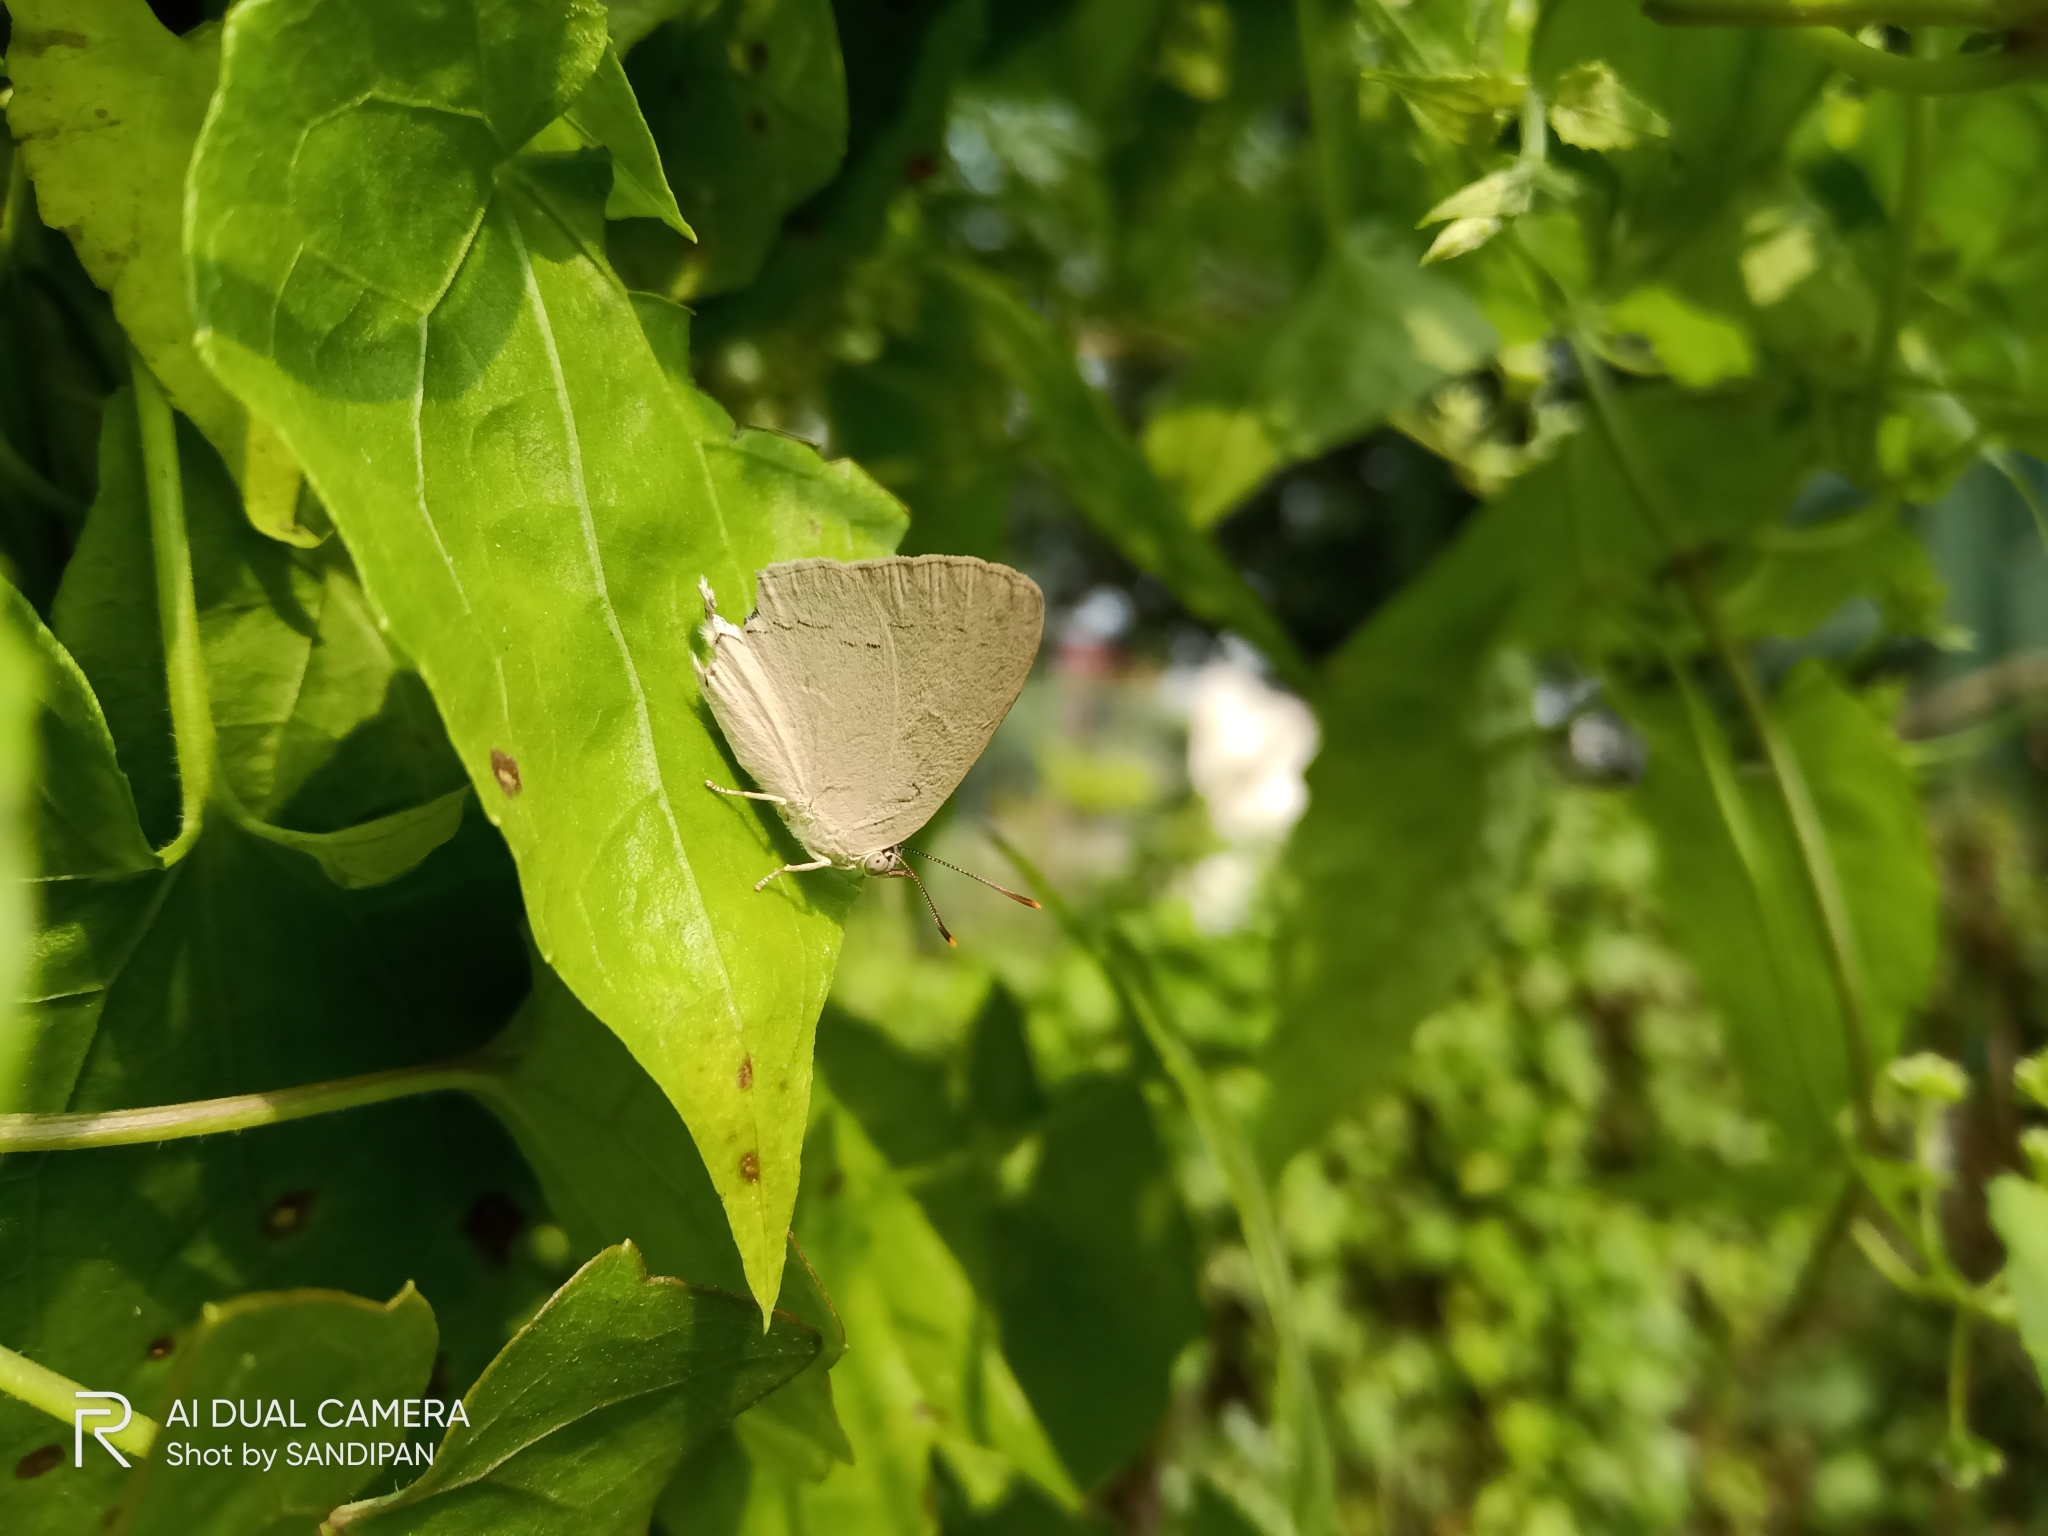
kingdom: Animalia
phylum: Arthropoda
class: Insecta
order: Lepidoptera
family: Lycaenidae
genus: Tajuria
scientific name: Tajuria jehana
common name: Plains blue royal
